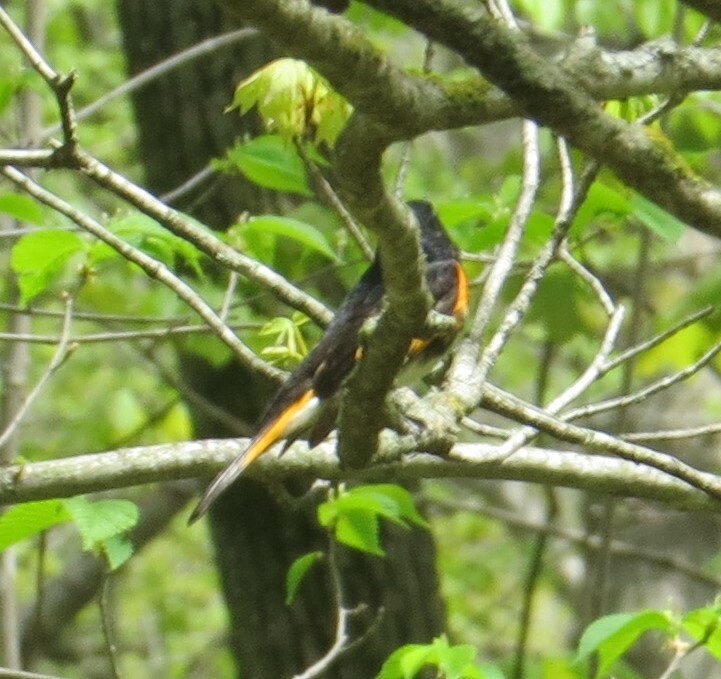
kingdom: Animalia
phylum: Chordata
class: Aves
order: Passeriformes
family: Parulidae
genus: Setophaga
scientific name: Setophaga ruticilla
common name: American redstart
